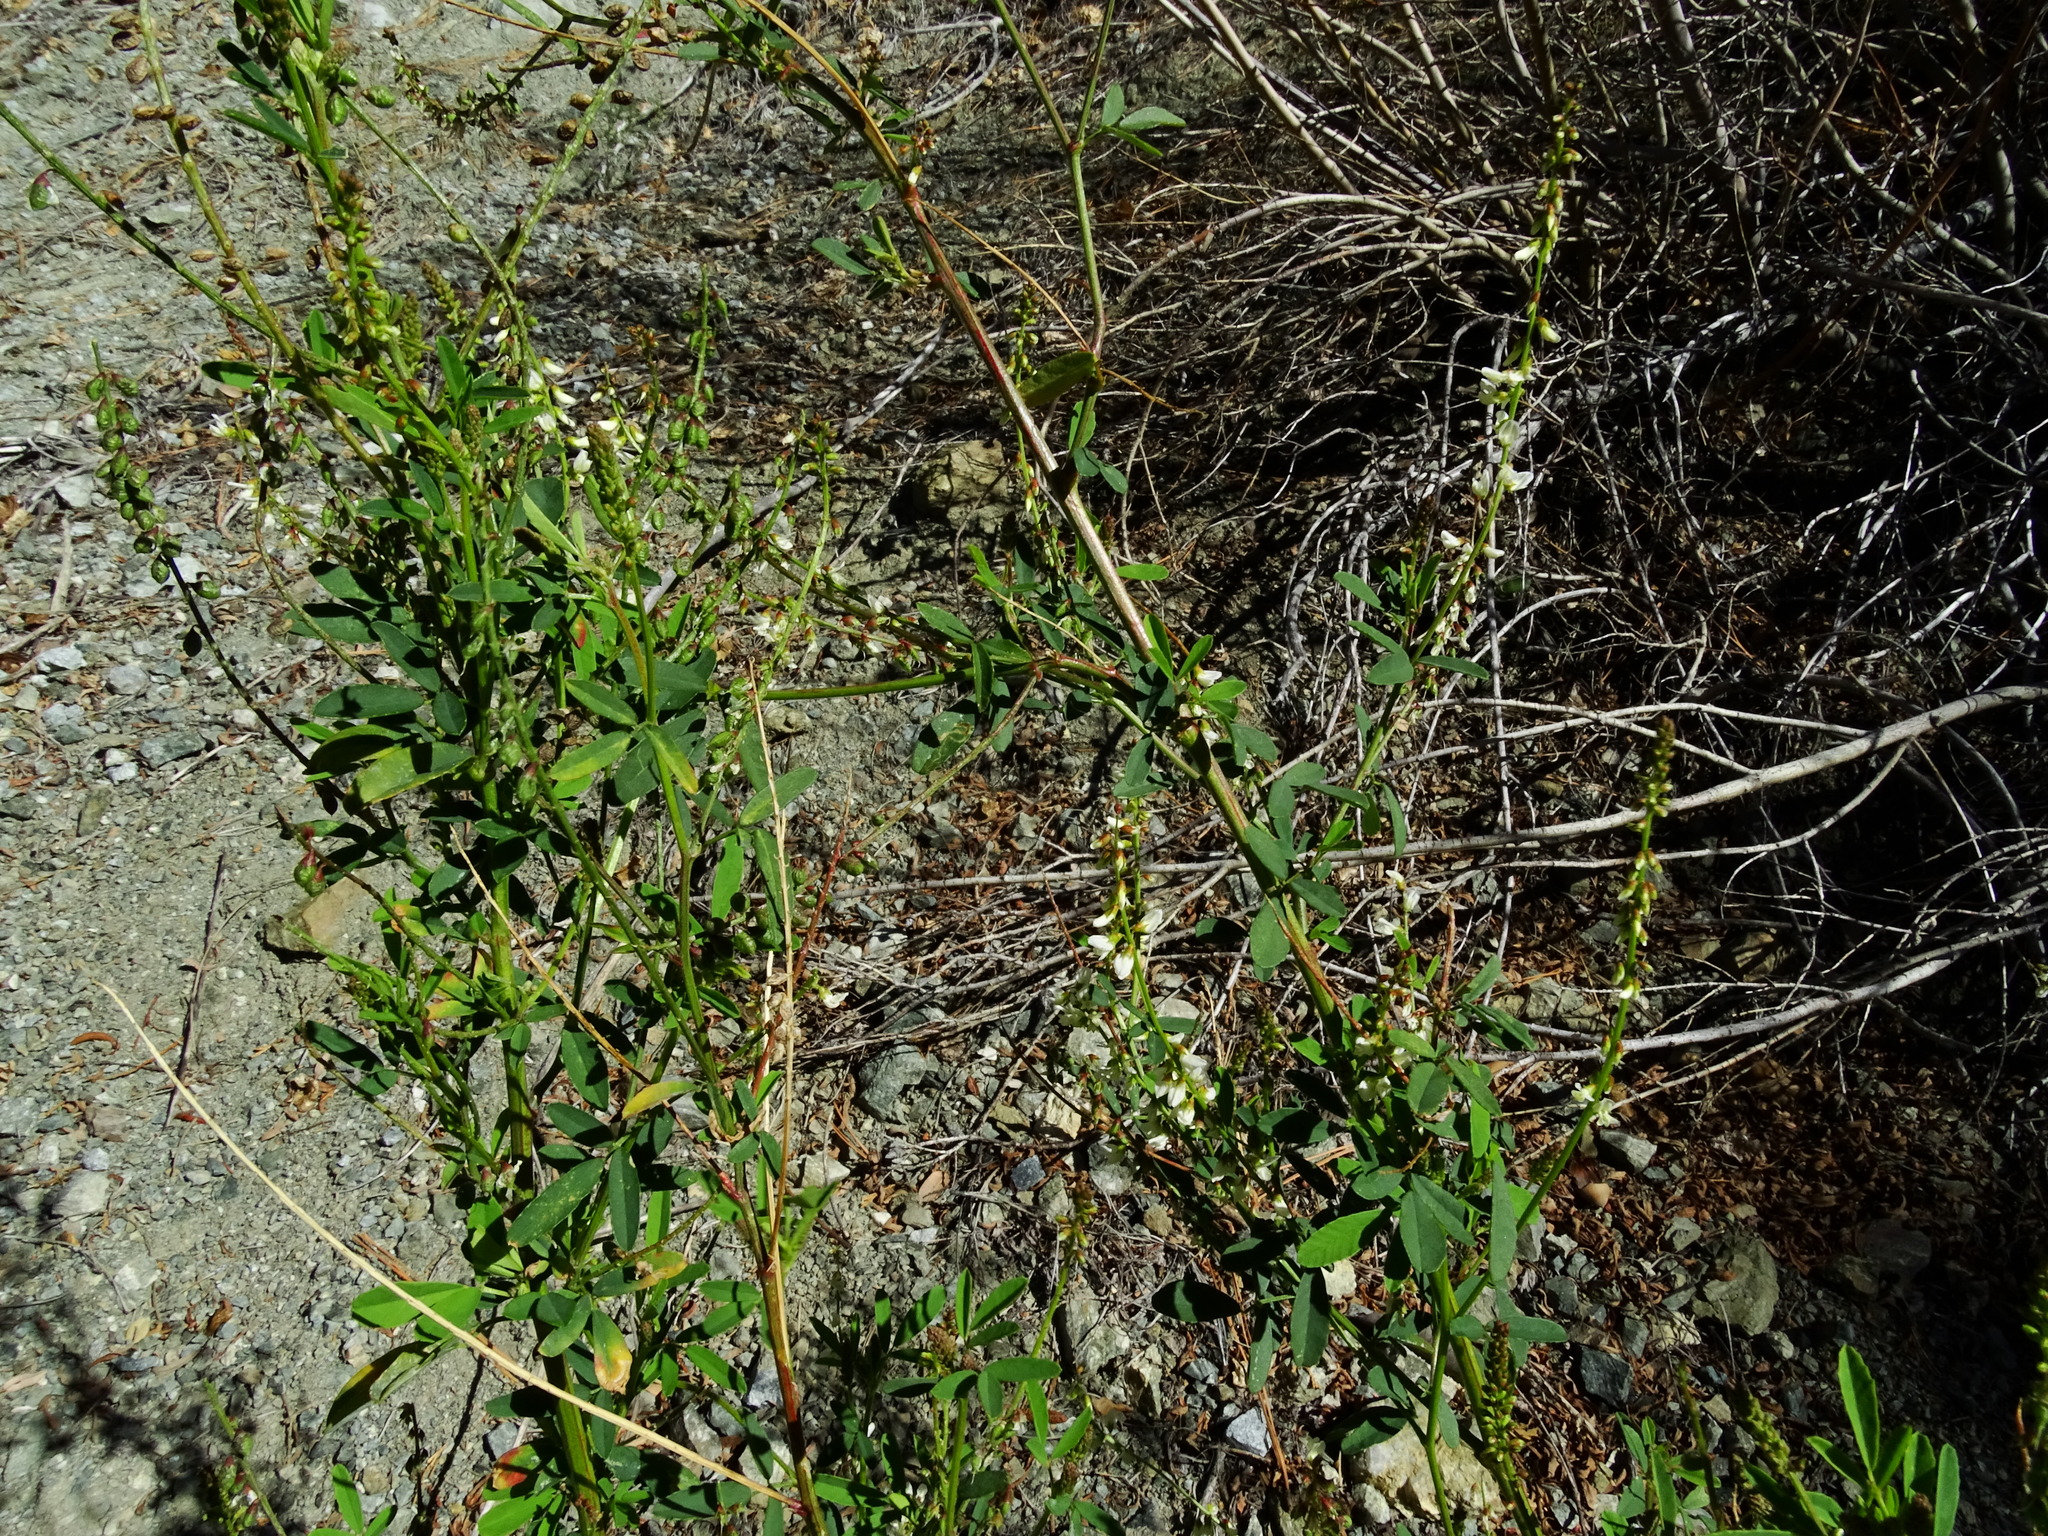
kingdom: Plantae
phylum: Tracheophyta
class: Magnoliopsida
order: Fabales
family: Fabaceae
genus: Melilotus
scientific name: Melilotus albus
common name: White melilot
